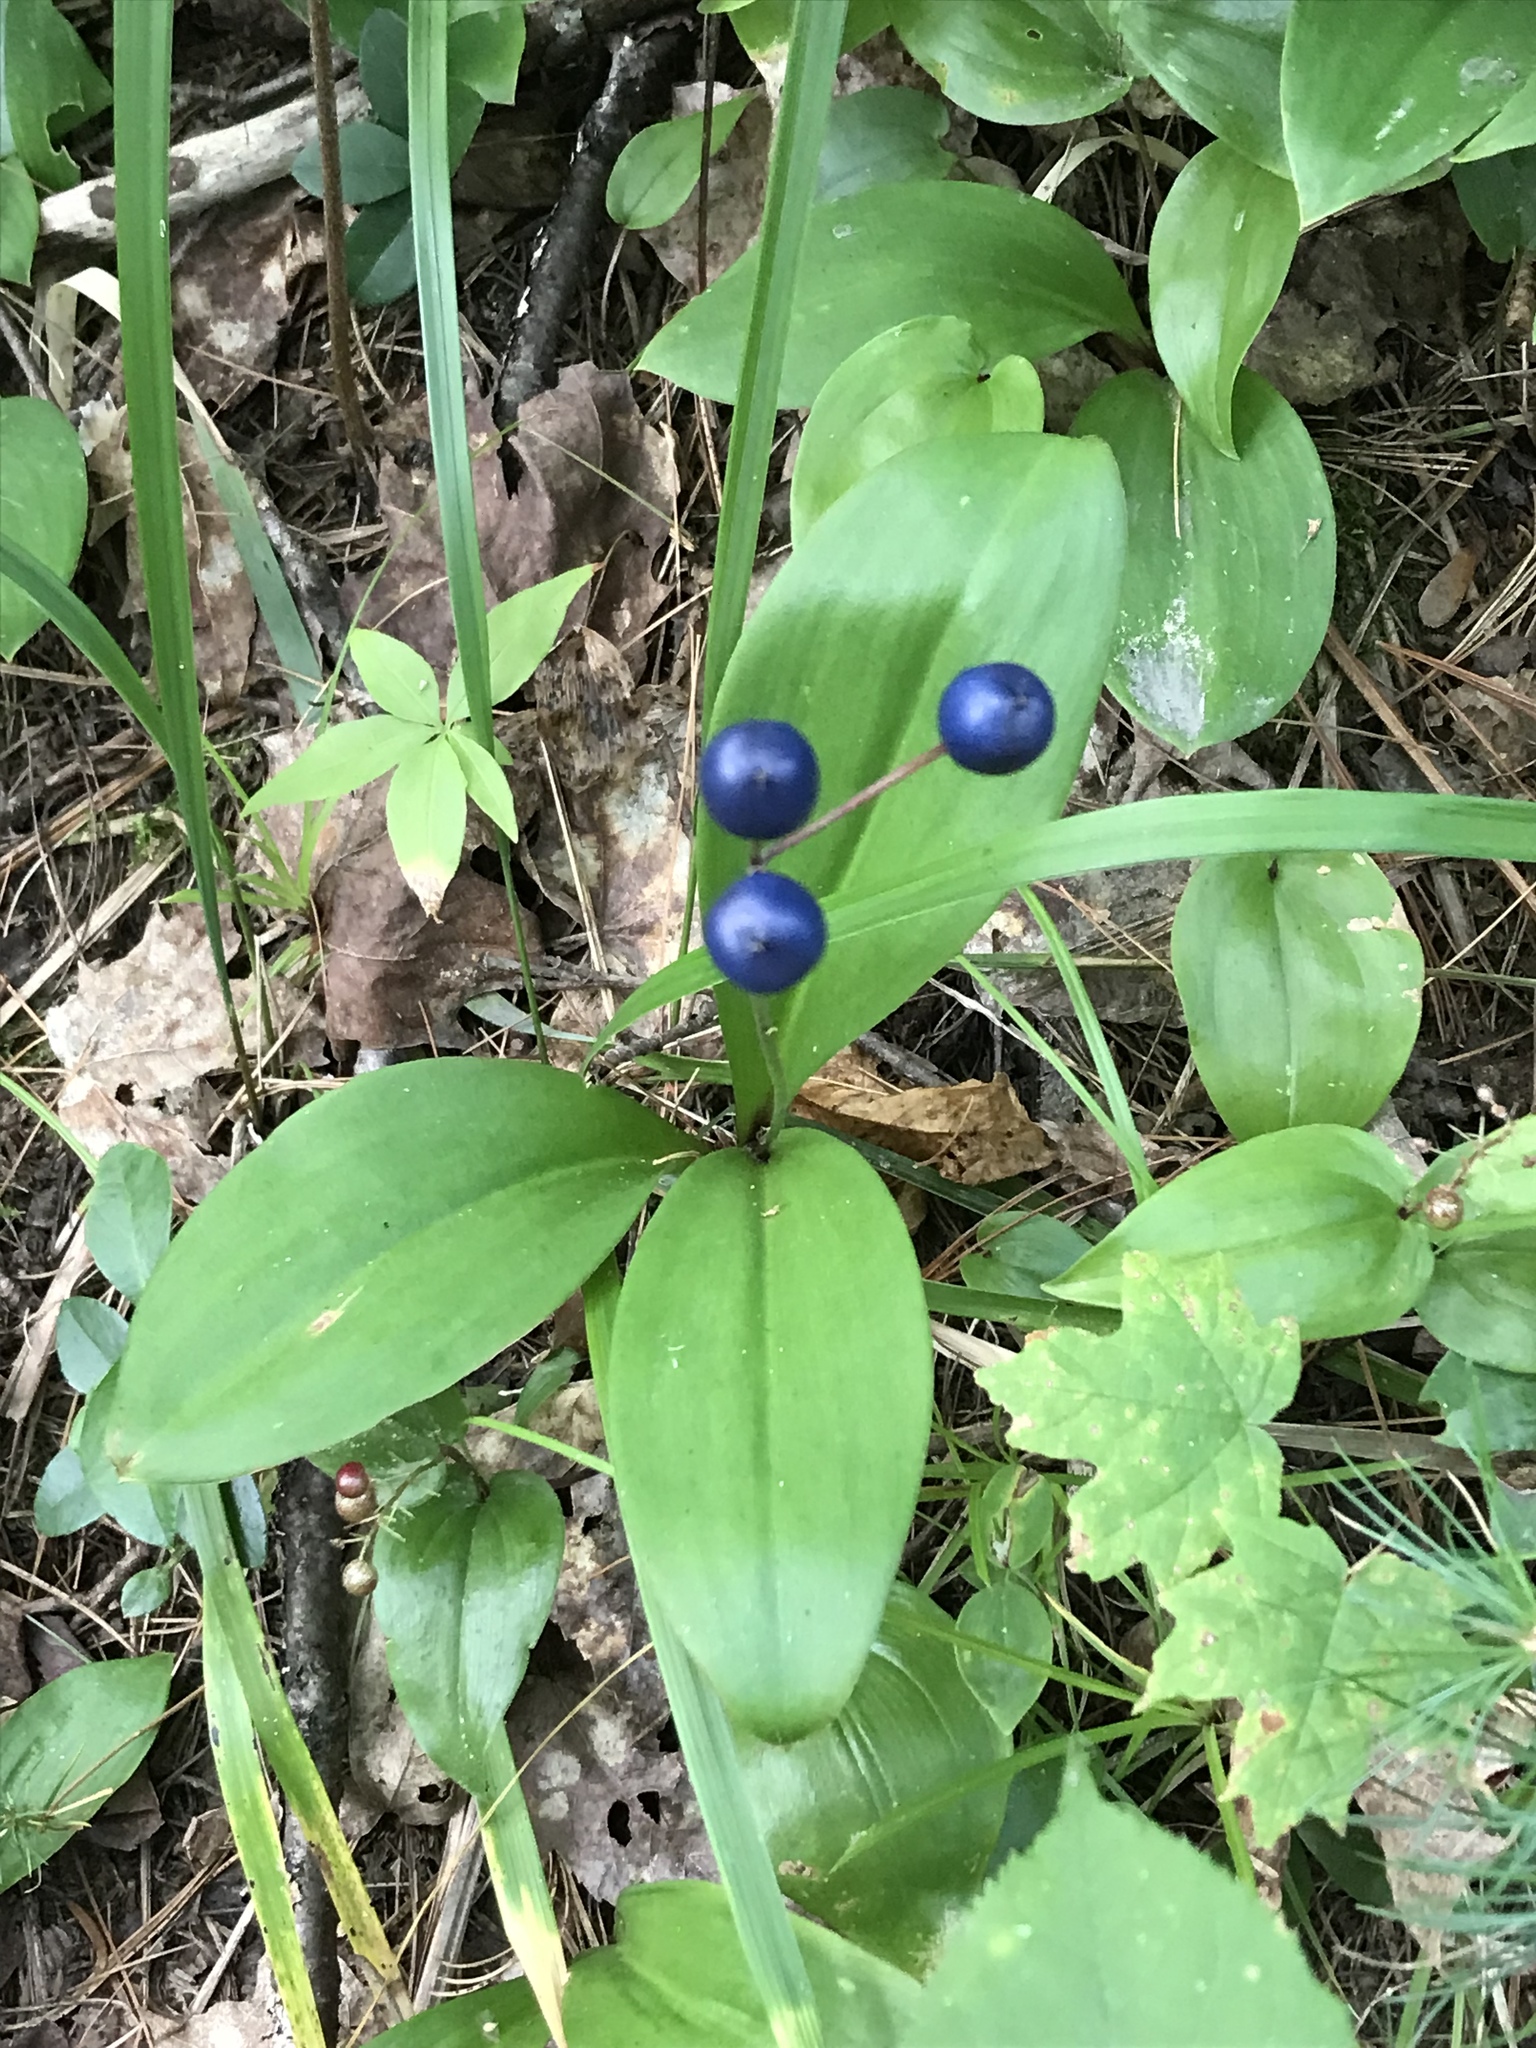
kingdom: Plantae
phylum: Tracheophyta
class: Liliopsida
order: Liliales
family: Liliaceae
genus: Clintonia
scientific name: Clintonia borealis
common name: Yellow clintonia
